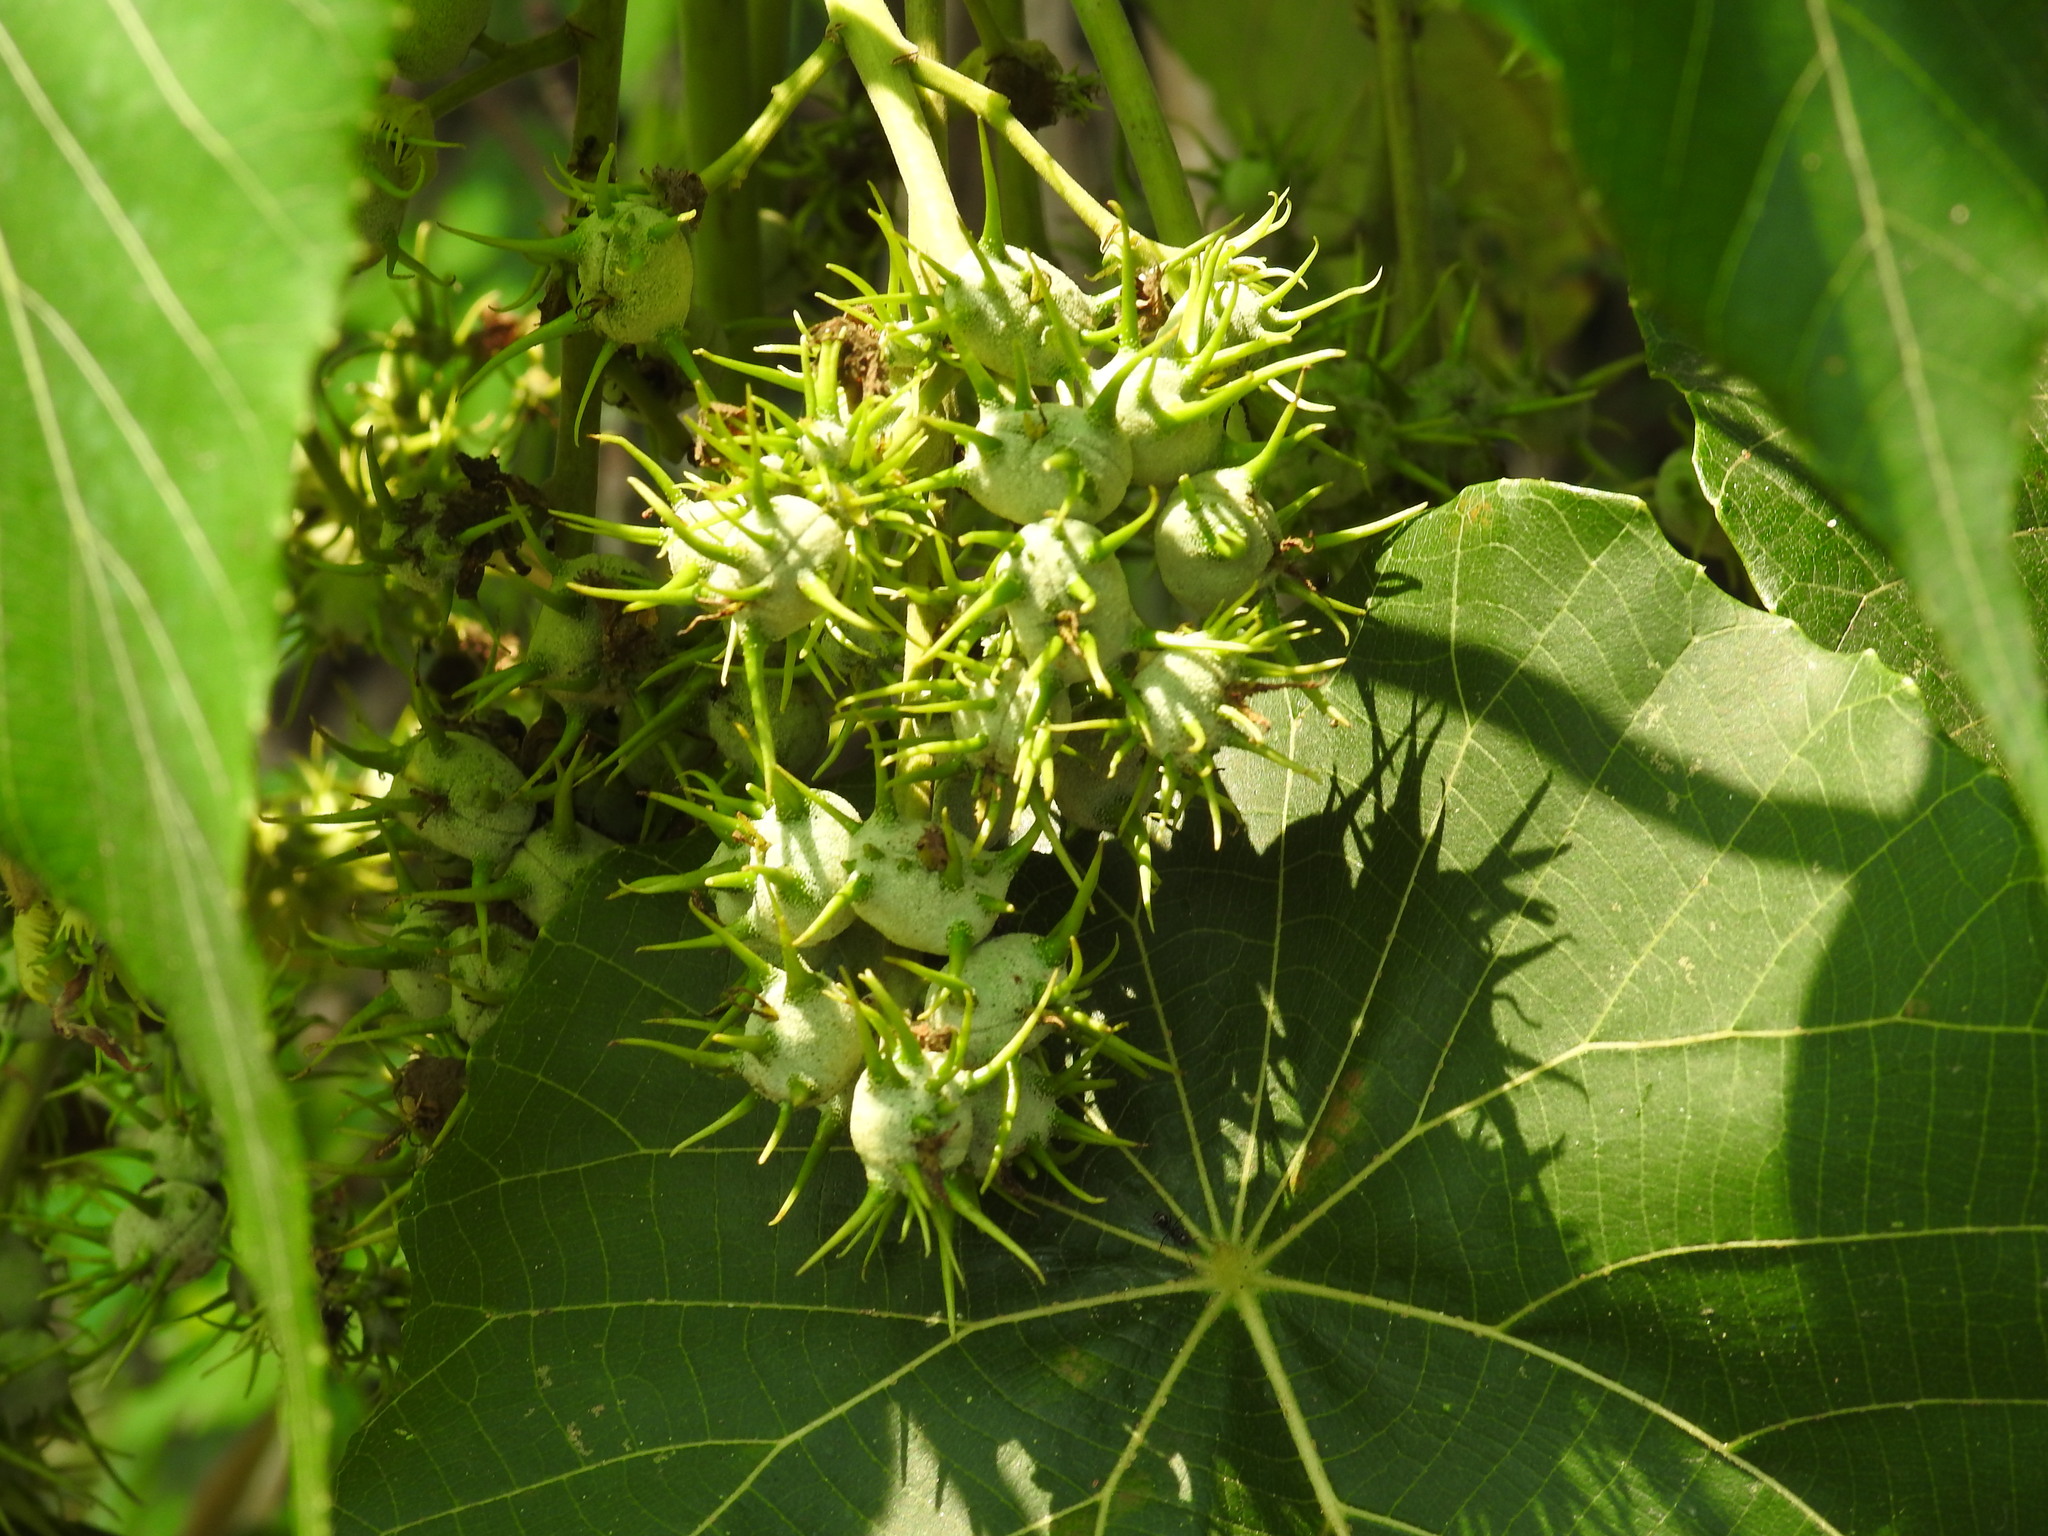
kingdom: Plantae
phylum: Tracheophyta
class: Magnoliopsida
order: Malpighiales
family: Euphorbiaceae
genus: Macaranga
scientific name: Macaranga tanarius
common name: Parasol leaf tree
